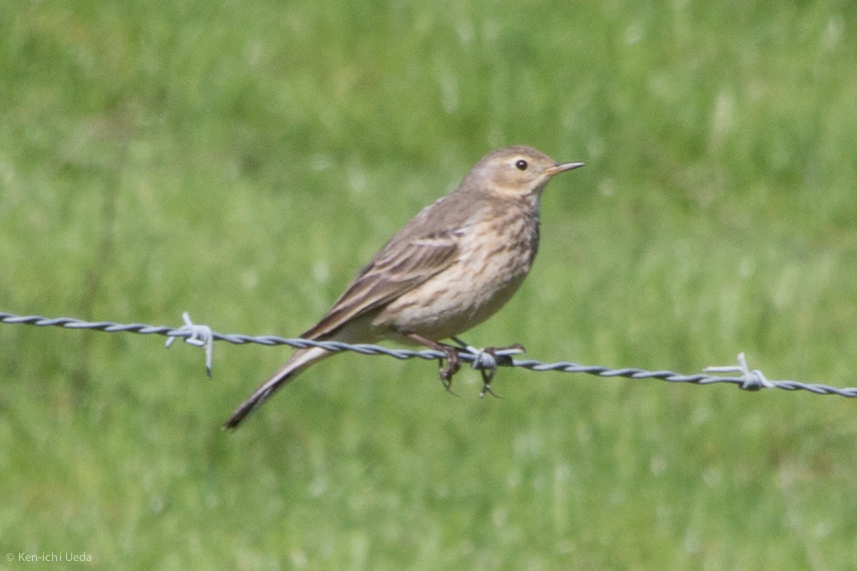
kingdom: Animalia
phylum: Chordata
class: Aves
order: Passeriformes
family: Motacillidae
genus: Anthus
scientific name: Anthus rubescens
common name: Buff-bellied pipit
